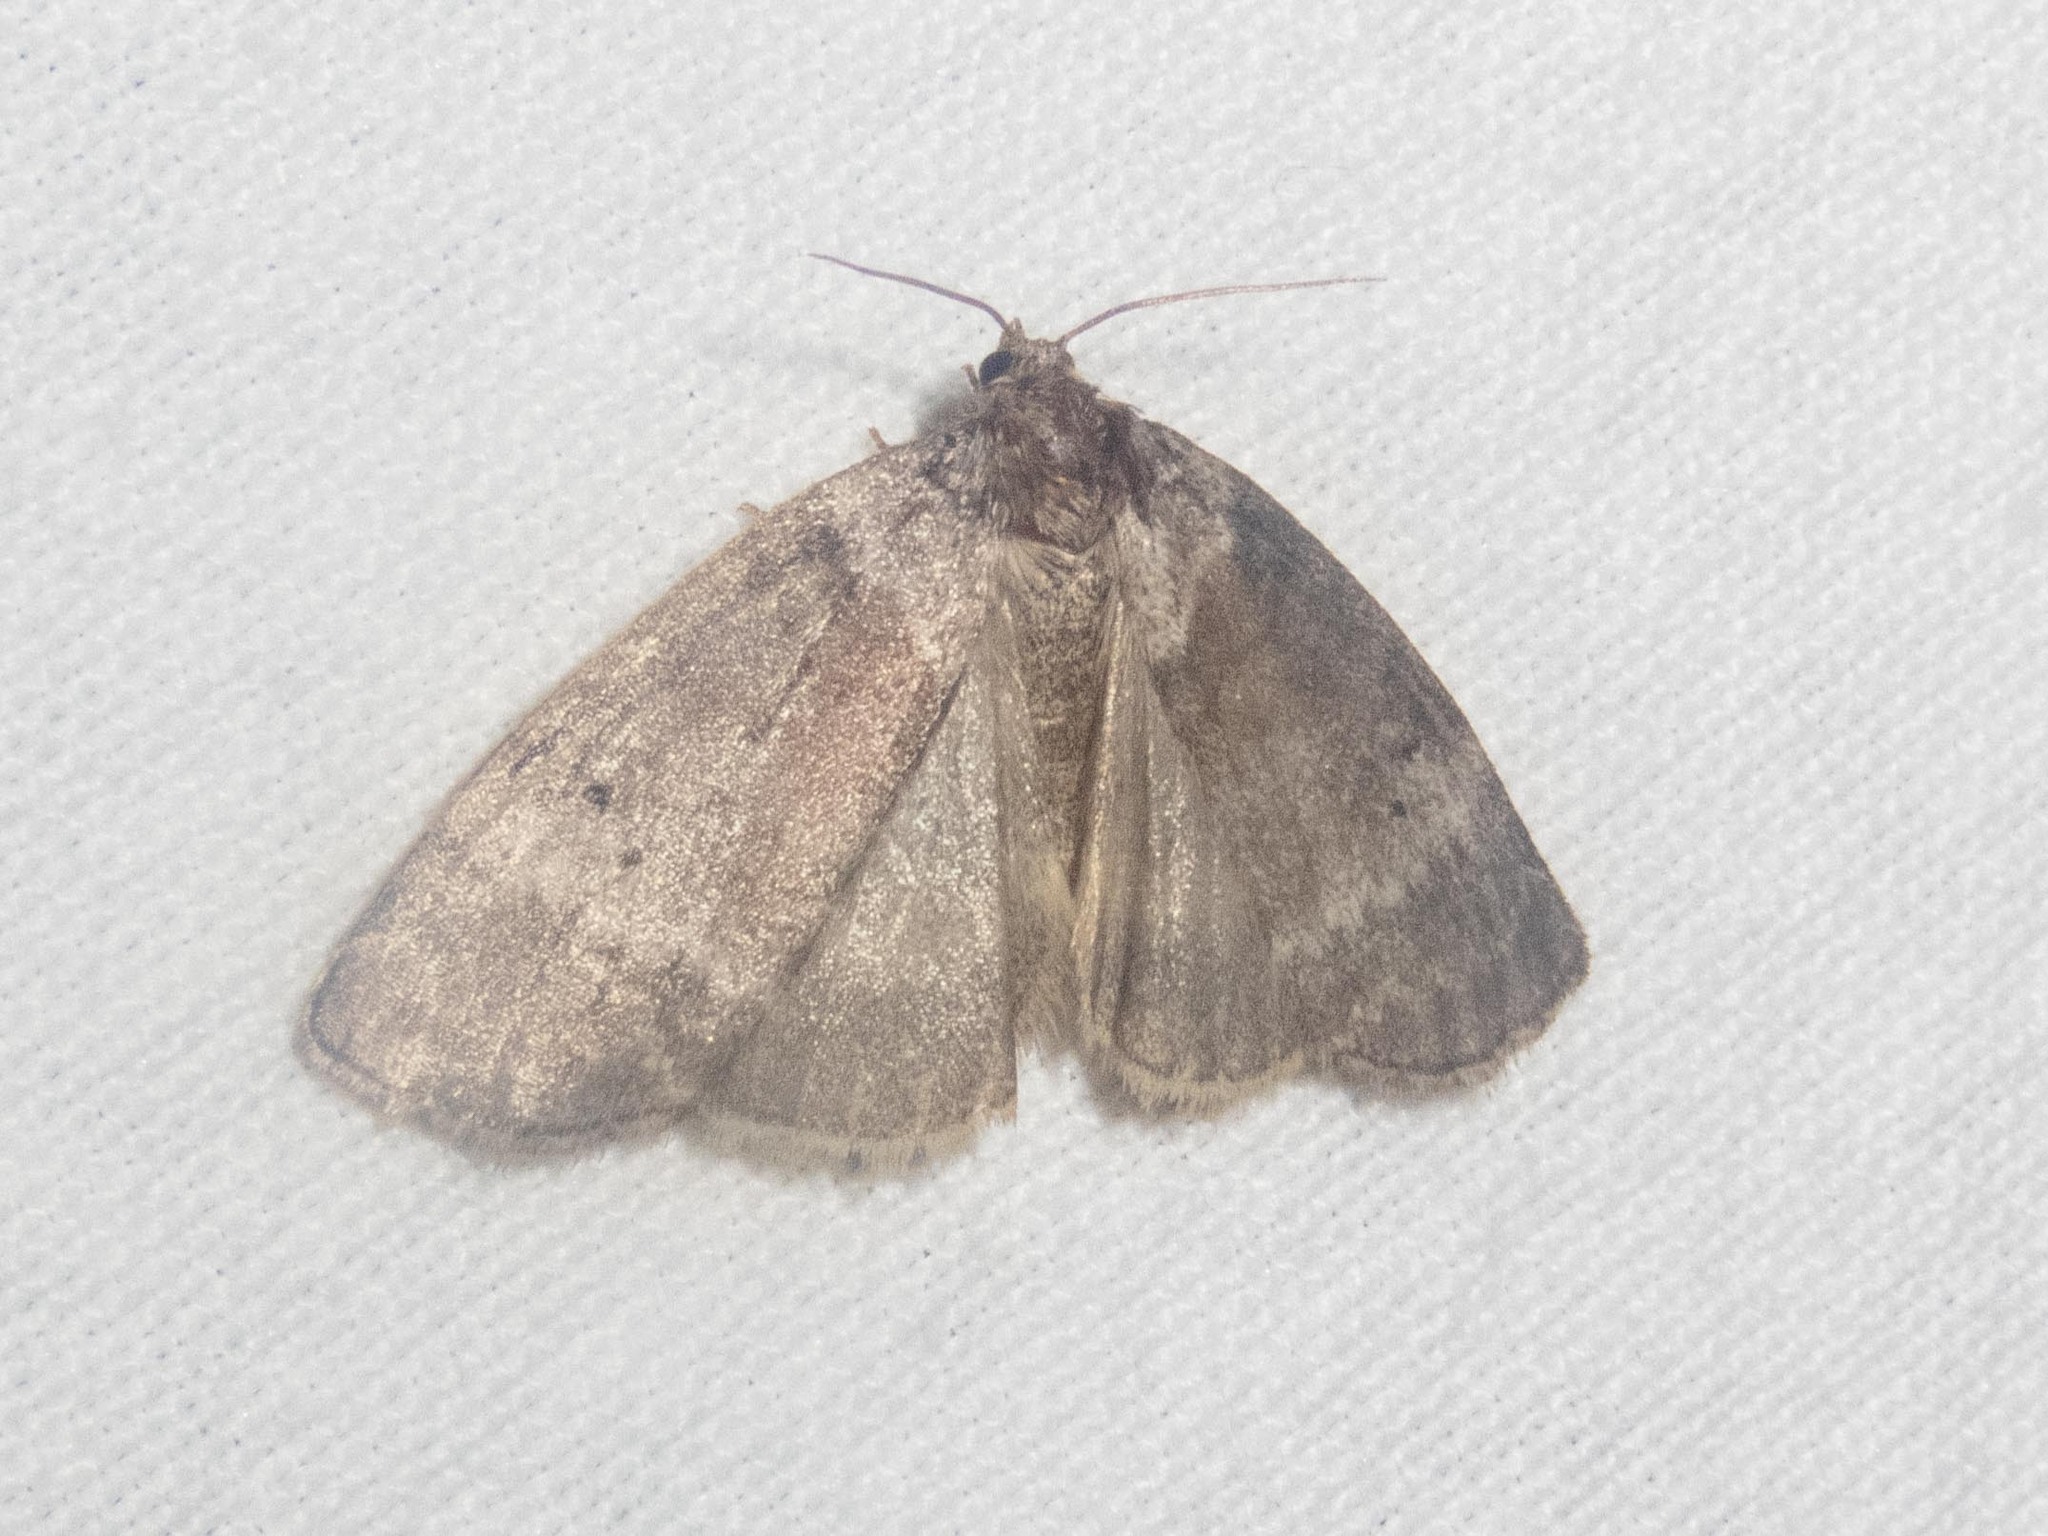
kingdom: Animalia
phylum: Arthropoda
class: Insecta
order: Lepidoptera
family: Drepanidae
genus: Ochropacha
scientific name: Ochropacha duplaris
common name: Common lutestring
